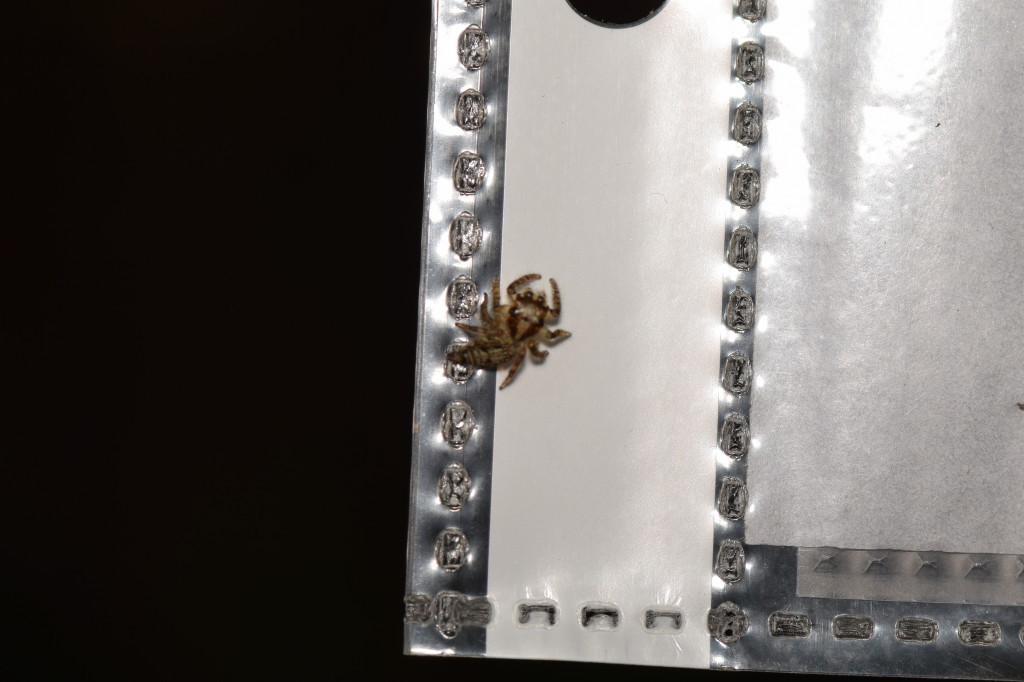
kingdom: Animalia
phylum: Arthropoda
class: Arachnida
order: Araneae
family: Salticidae
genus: Hyllus
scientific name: Hyllus semicupreus
